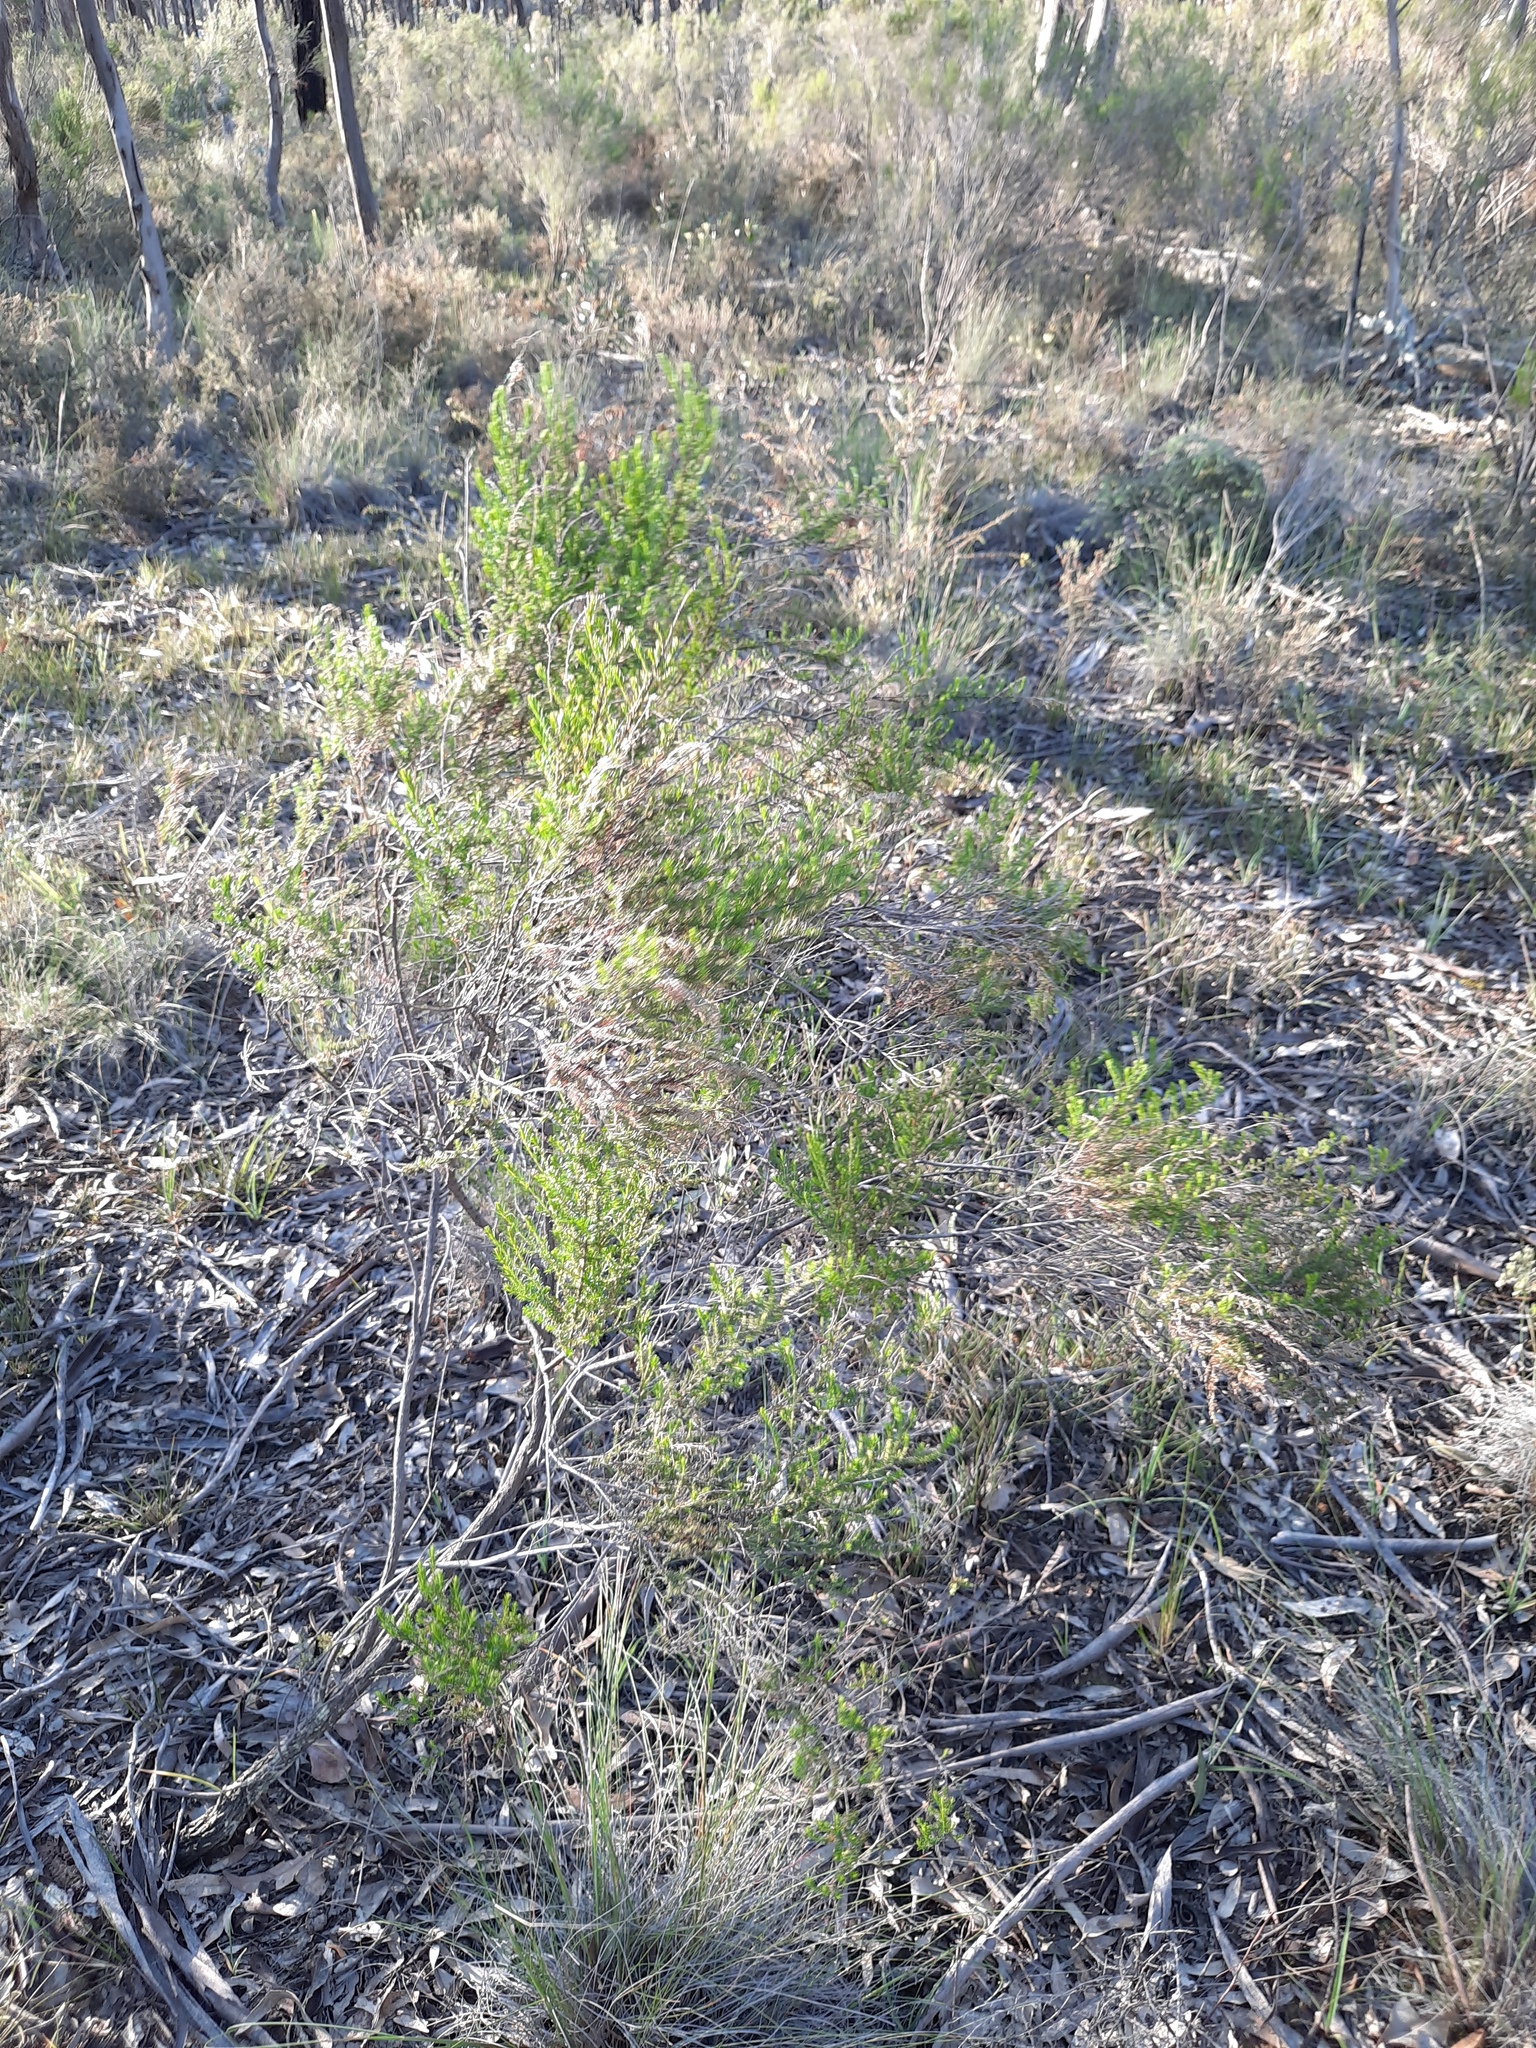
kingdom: Plantae
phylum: Tracheophyta
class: Magnoliopsida
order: Asterales
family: Asteraceae
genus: Cassinia
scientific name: Cassinia sifton
